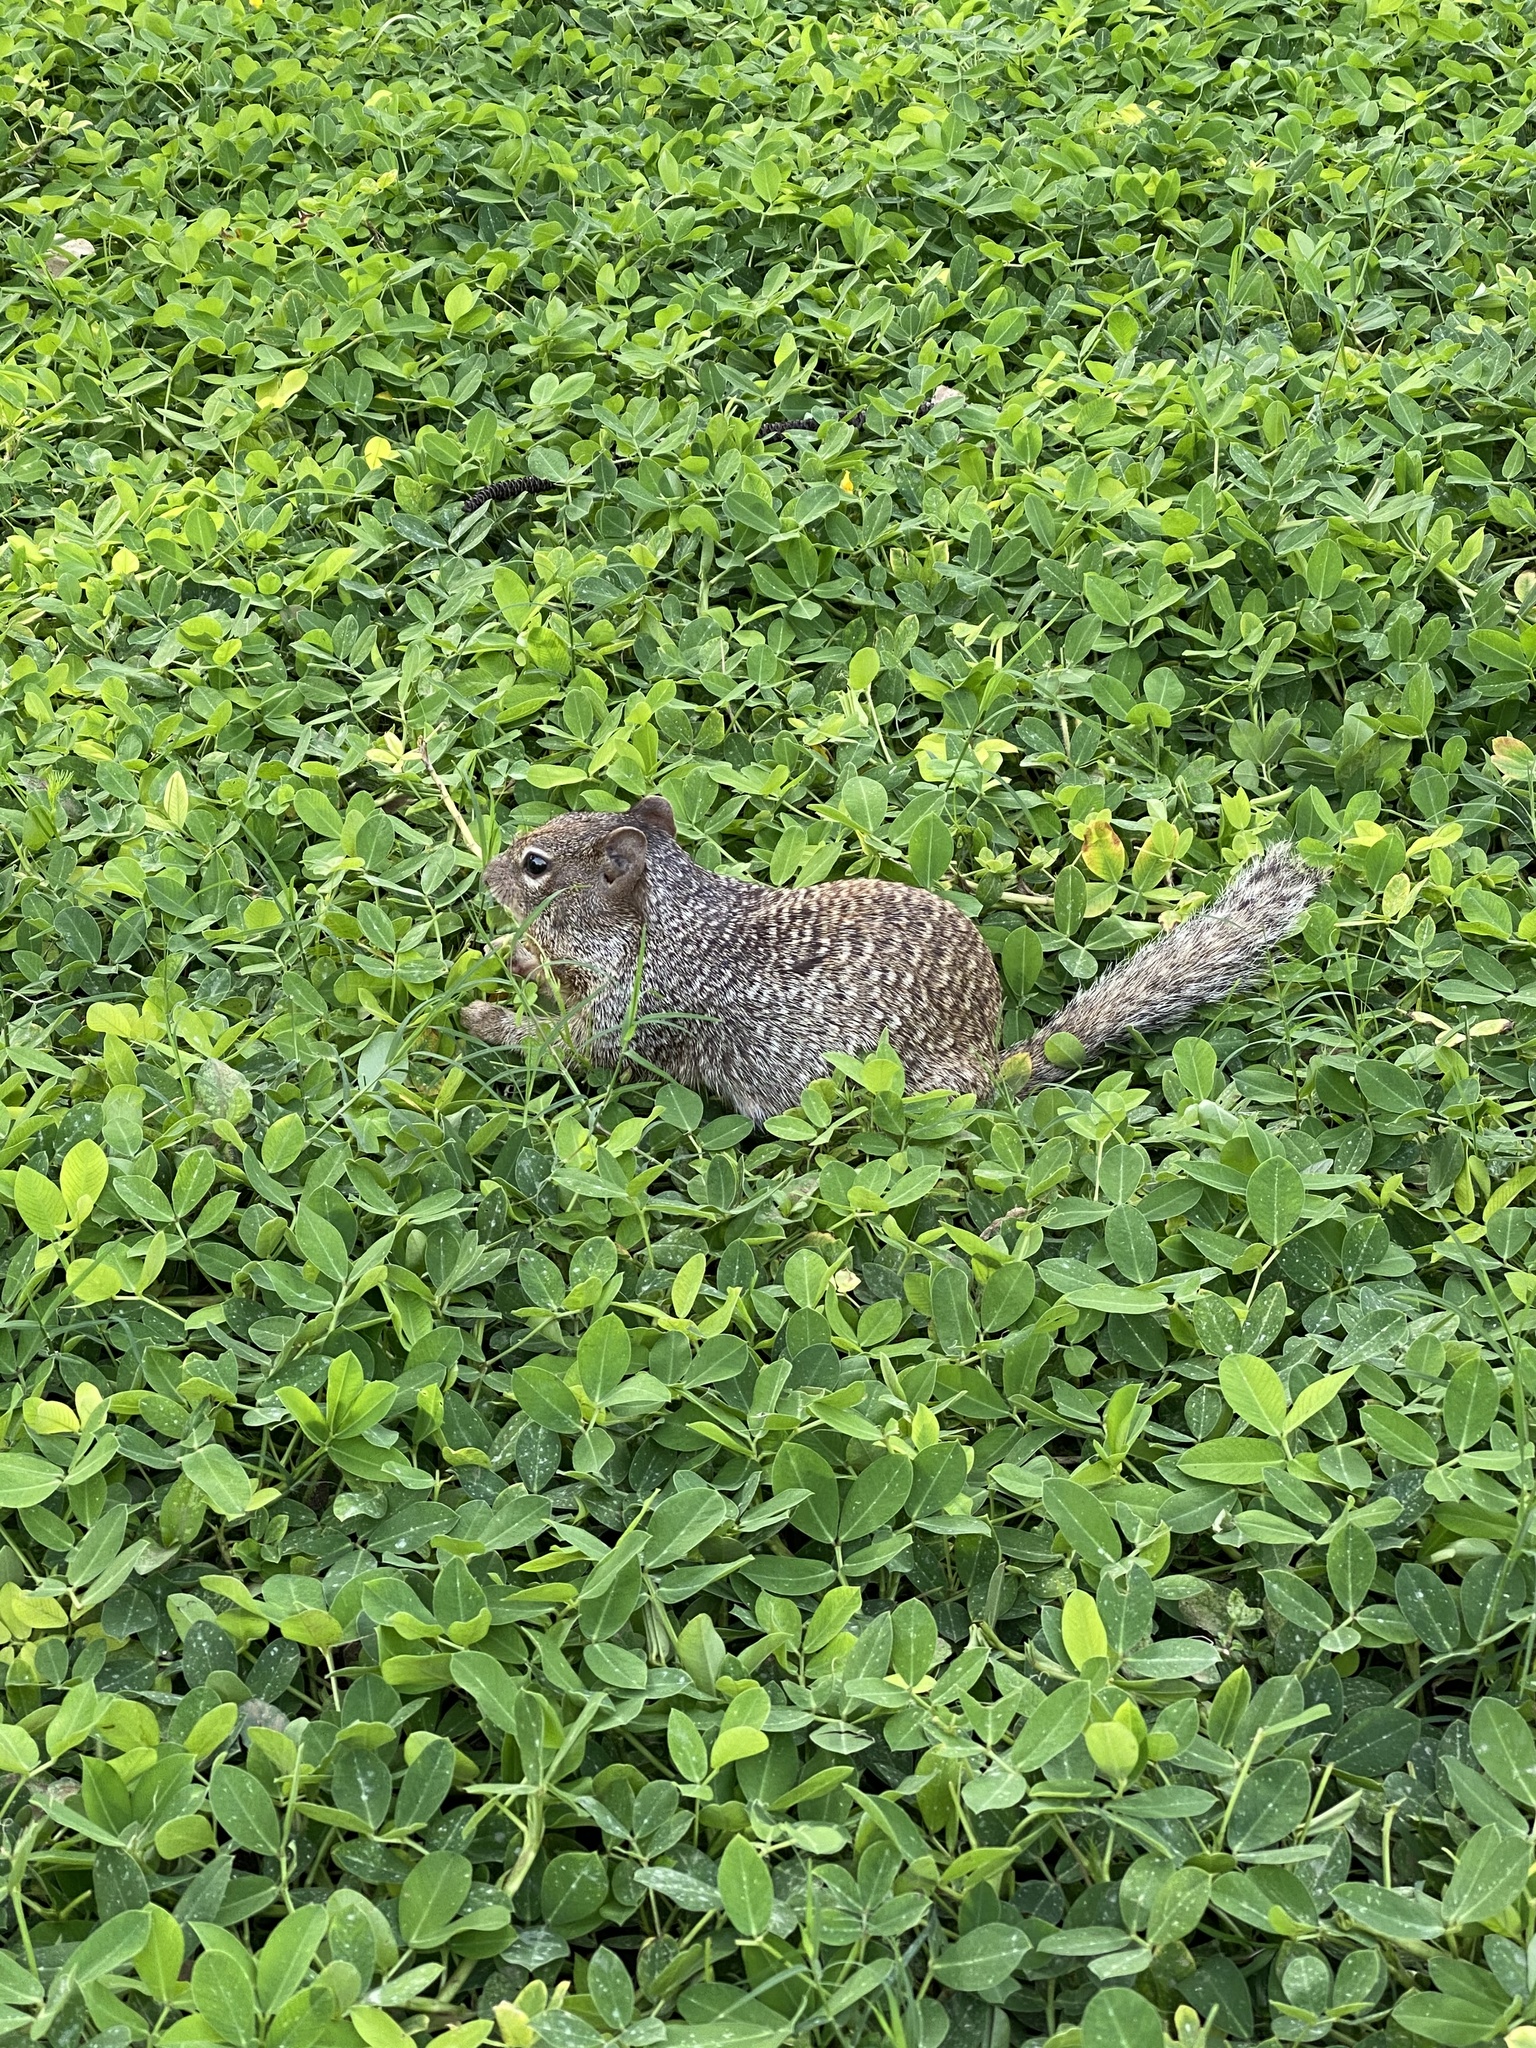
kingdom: Animalia
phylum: Chordata
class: Mammalia
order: Rodentia
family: Sciuridae
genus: Otospermophilus
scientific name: Otospermophilus variegatus
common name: Rock squirrel
